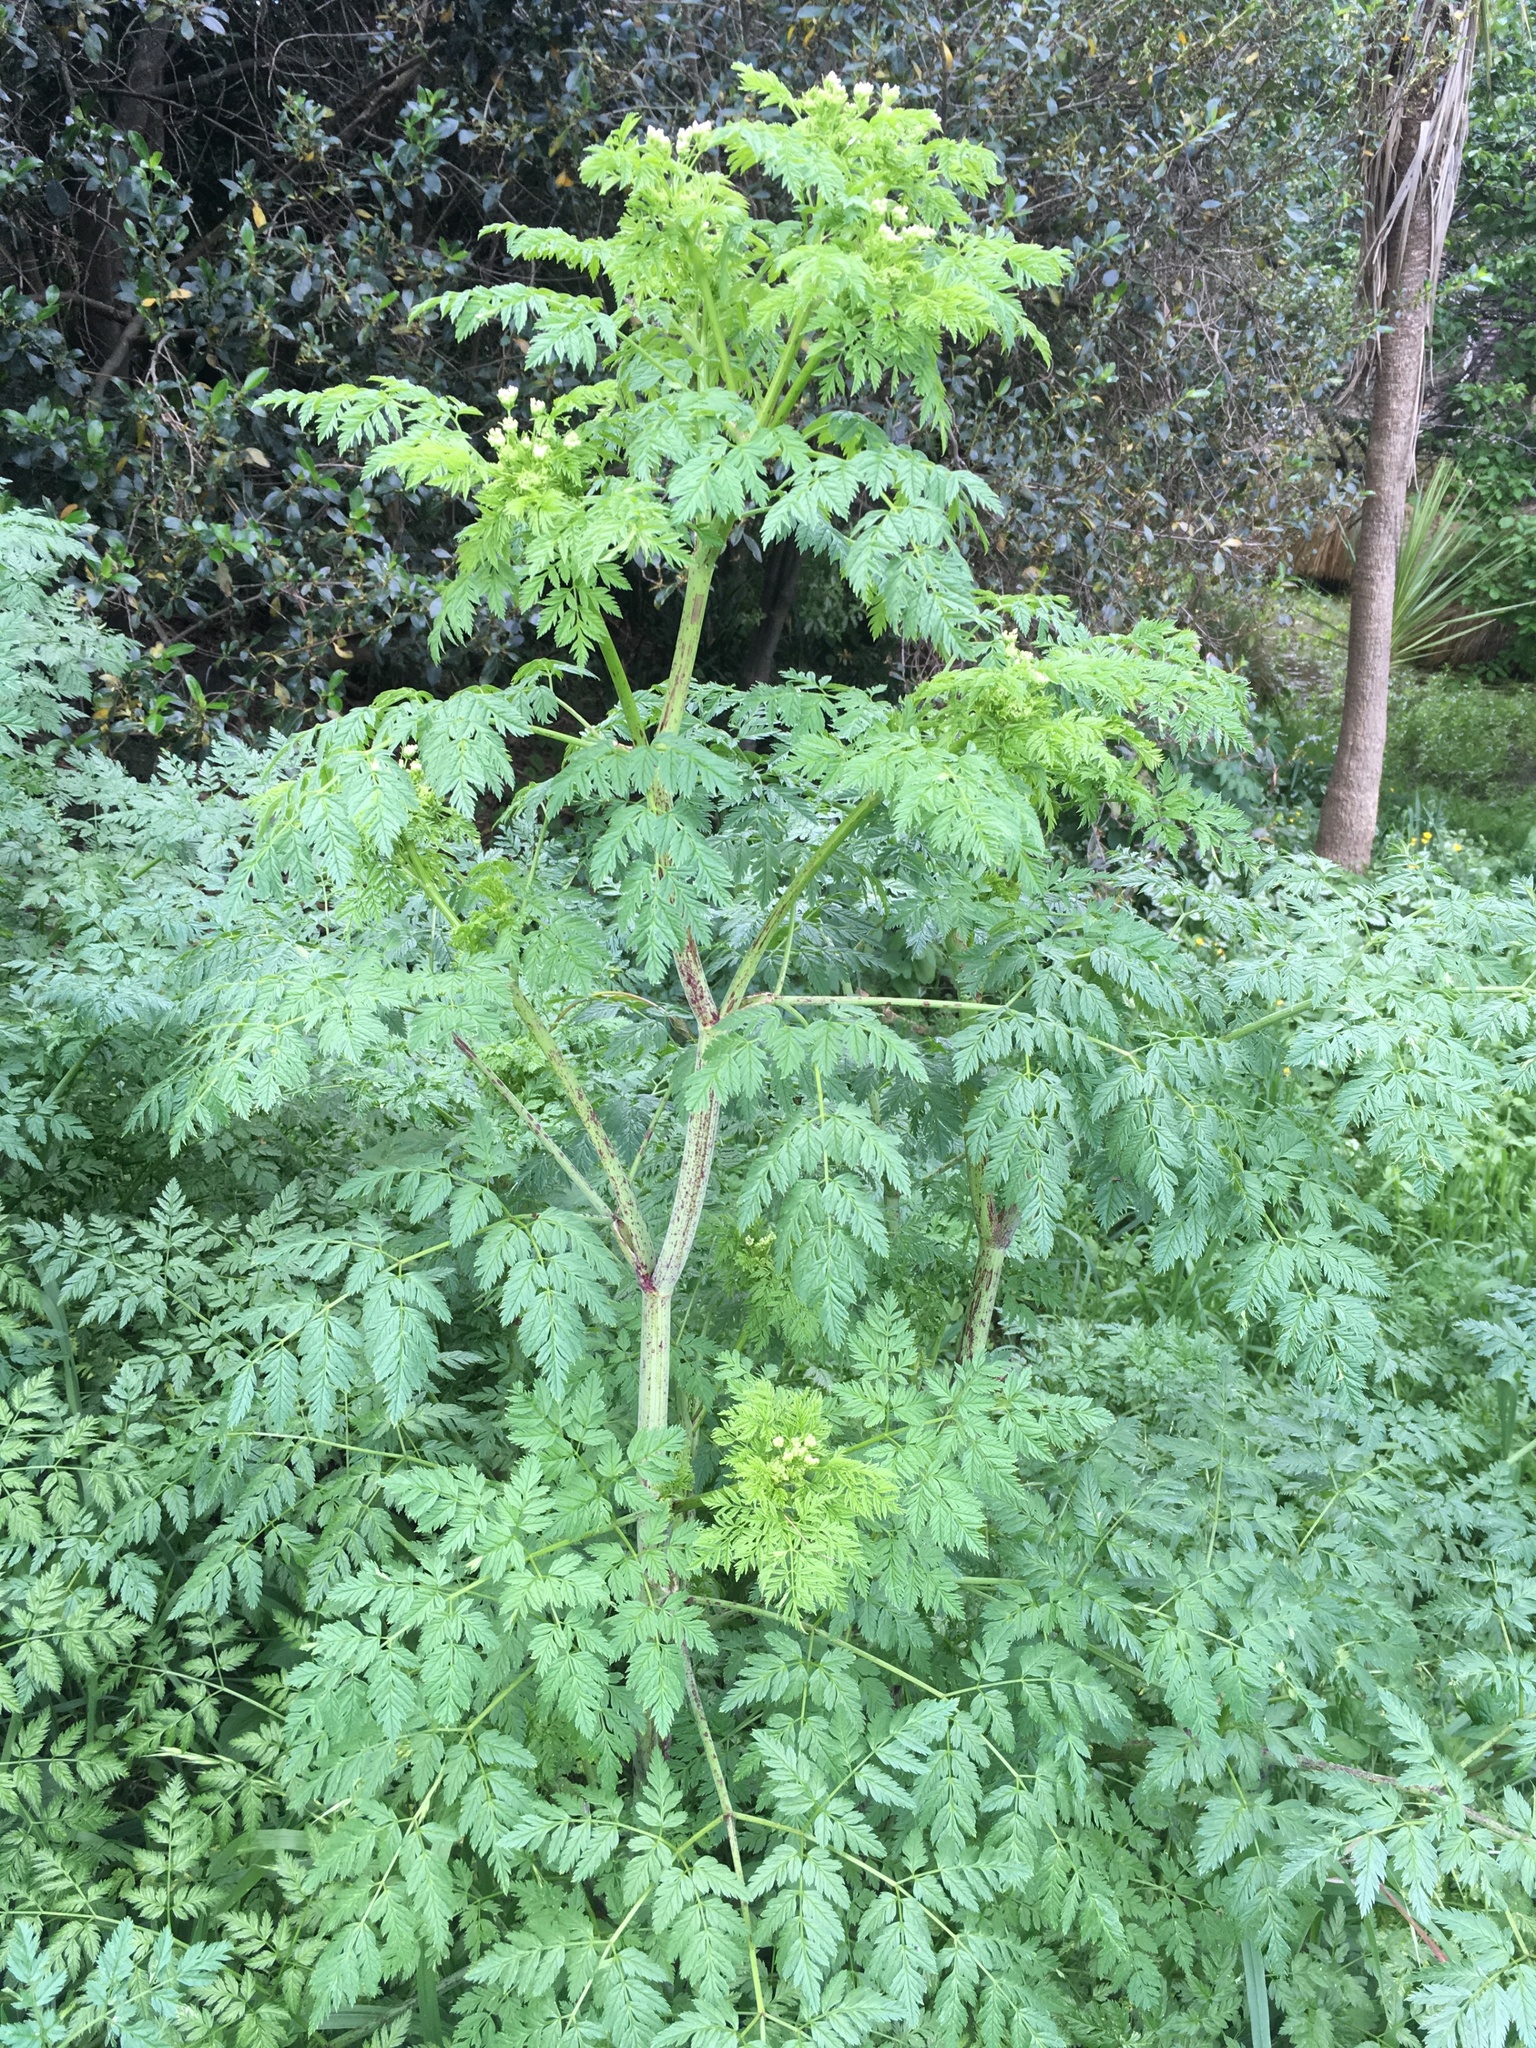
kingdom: Plantae
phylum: Tracheophyta
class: Magnoliopsida
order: Apiales
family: Apiaceae
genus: Conium
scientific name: Conium maculatum
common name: Hemlock
